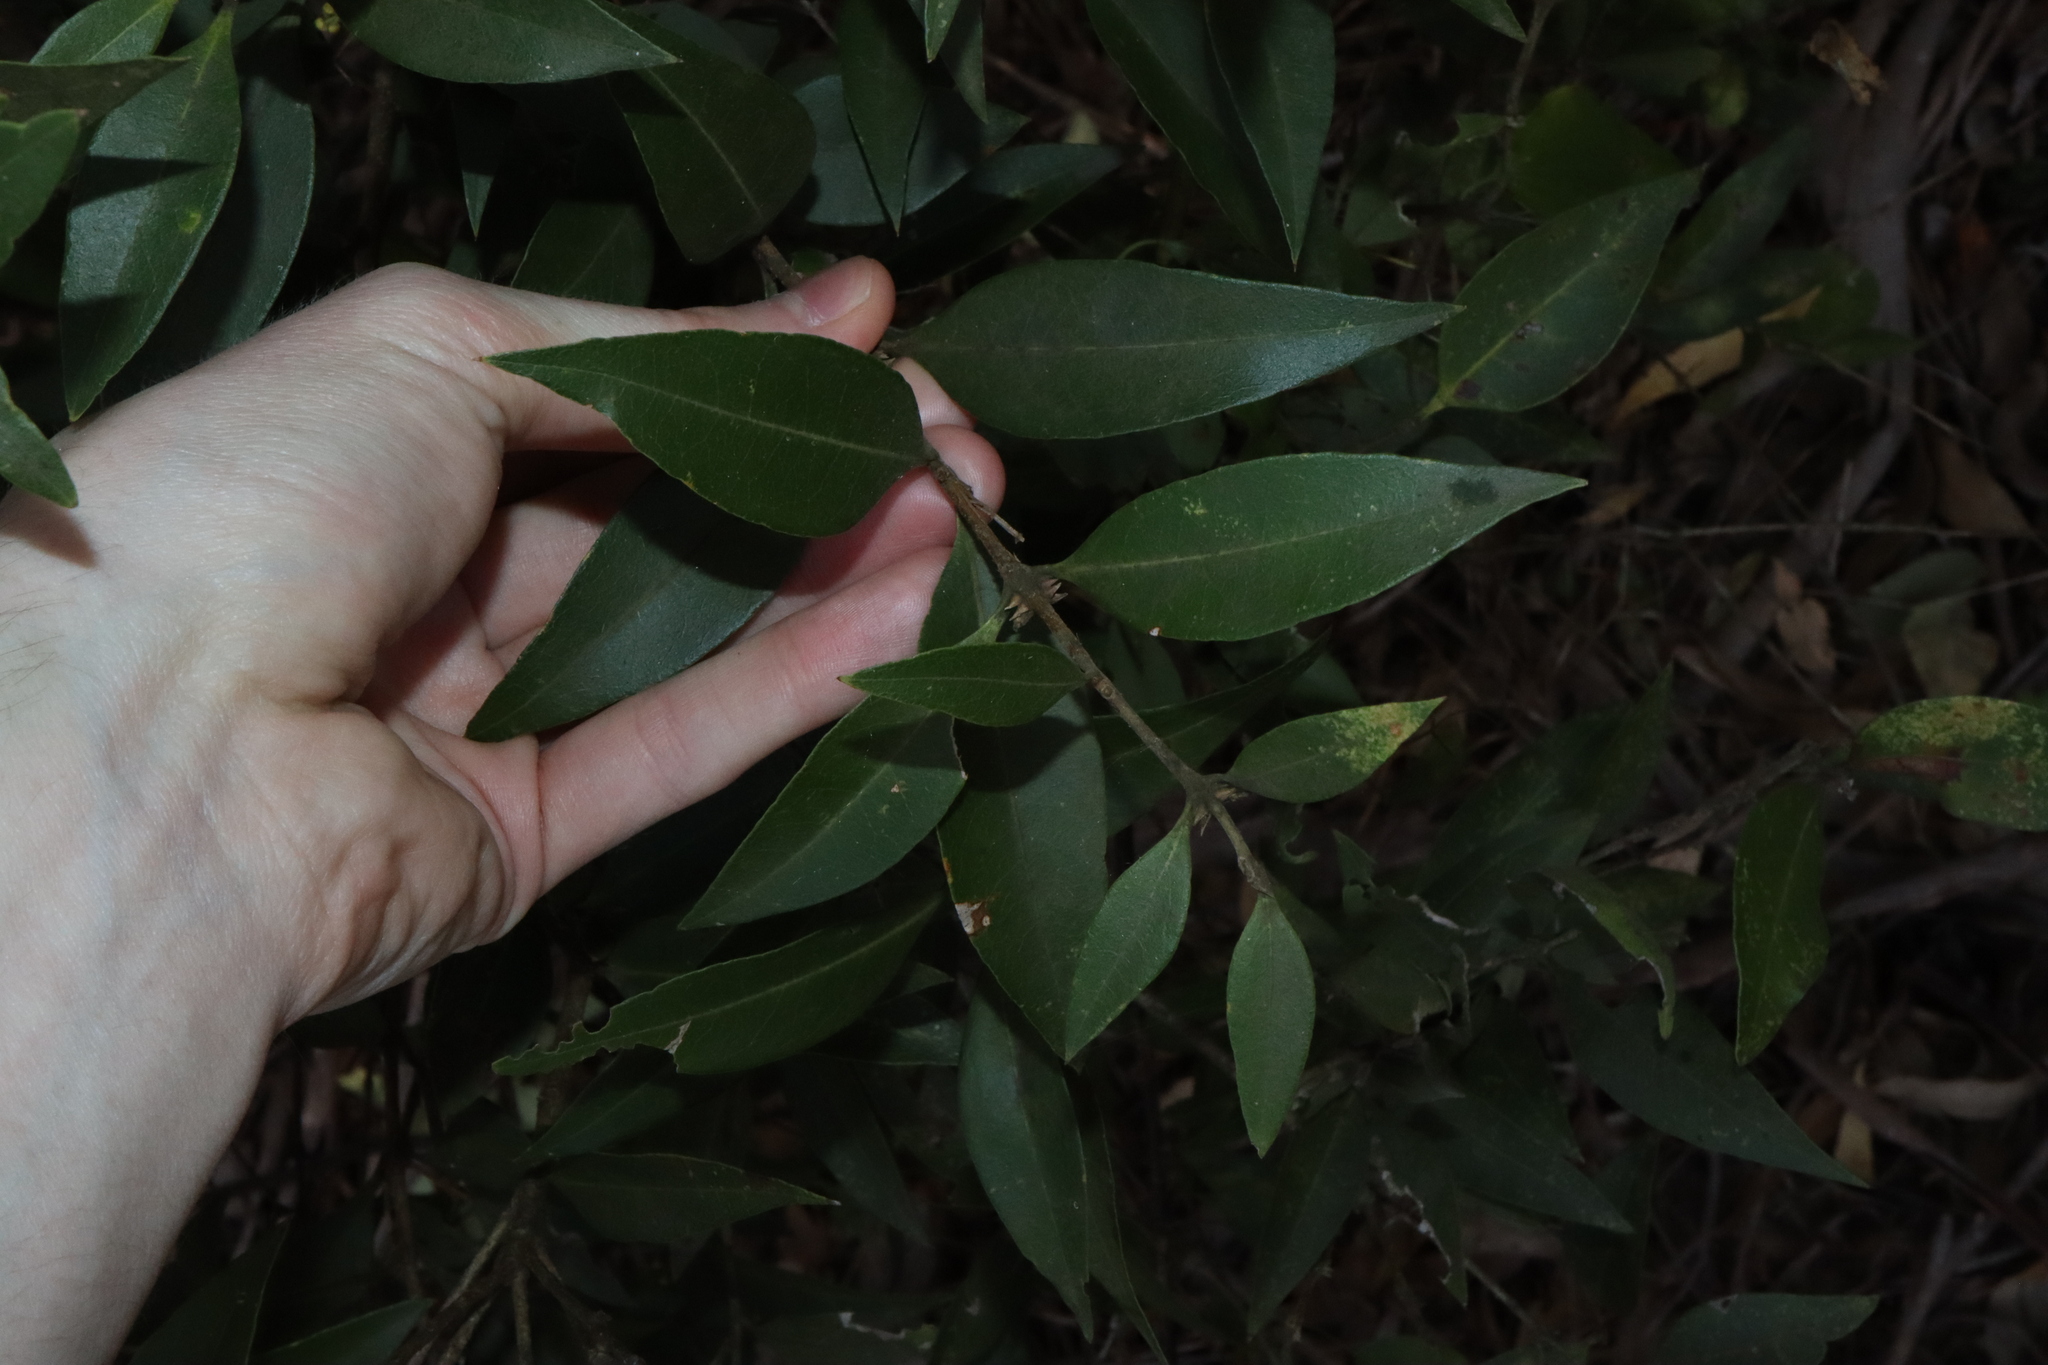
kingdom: Plantae
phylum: Tracheophyta
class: Magnoliopsida
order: Lamiales
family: Oleaceae
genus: Notelaea
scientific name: Notelaea longifolia
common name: Large mock olive
